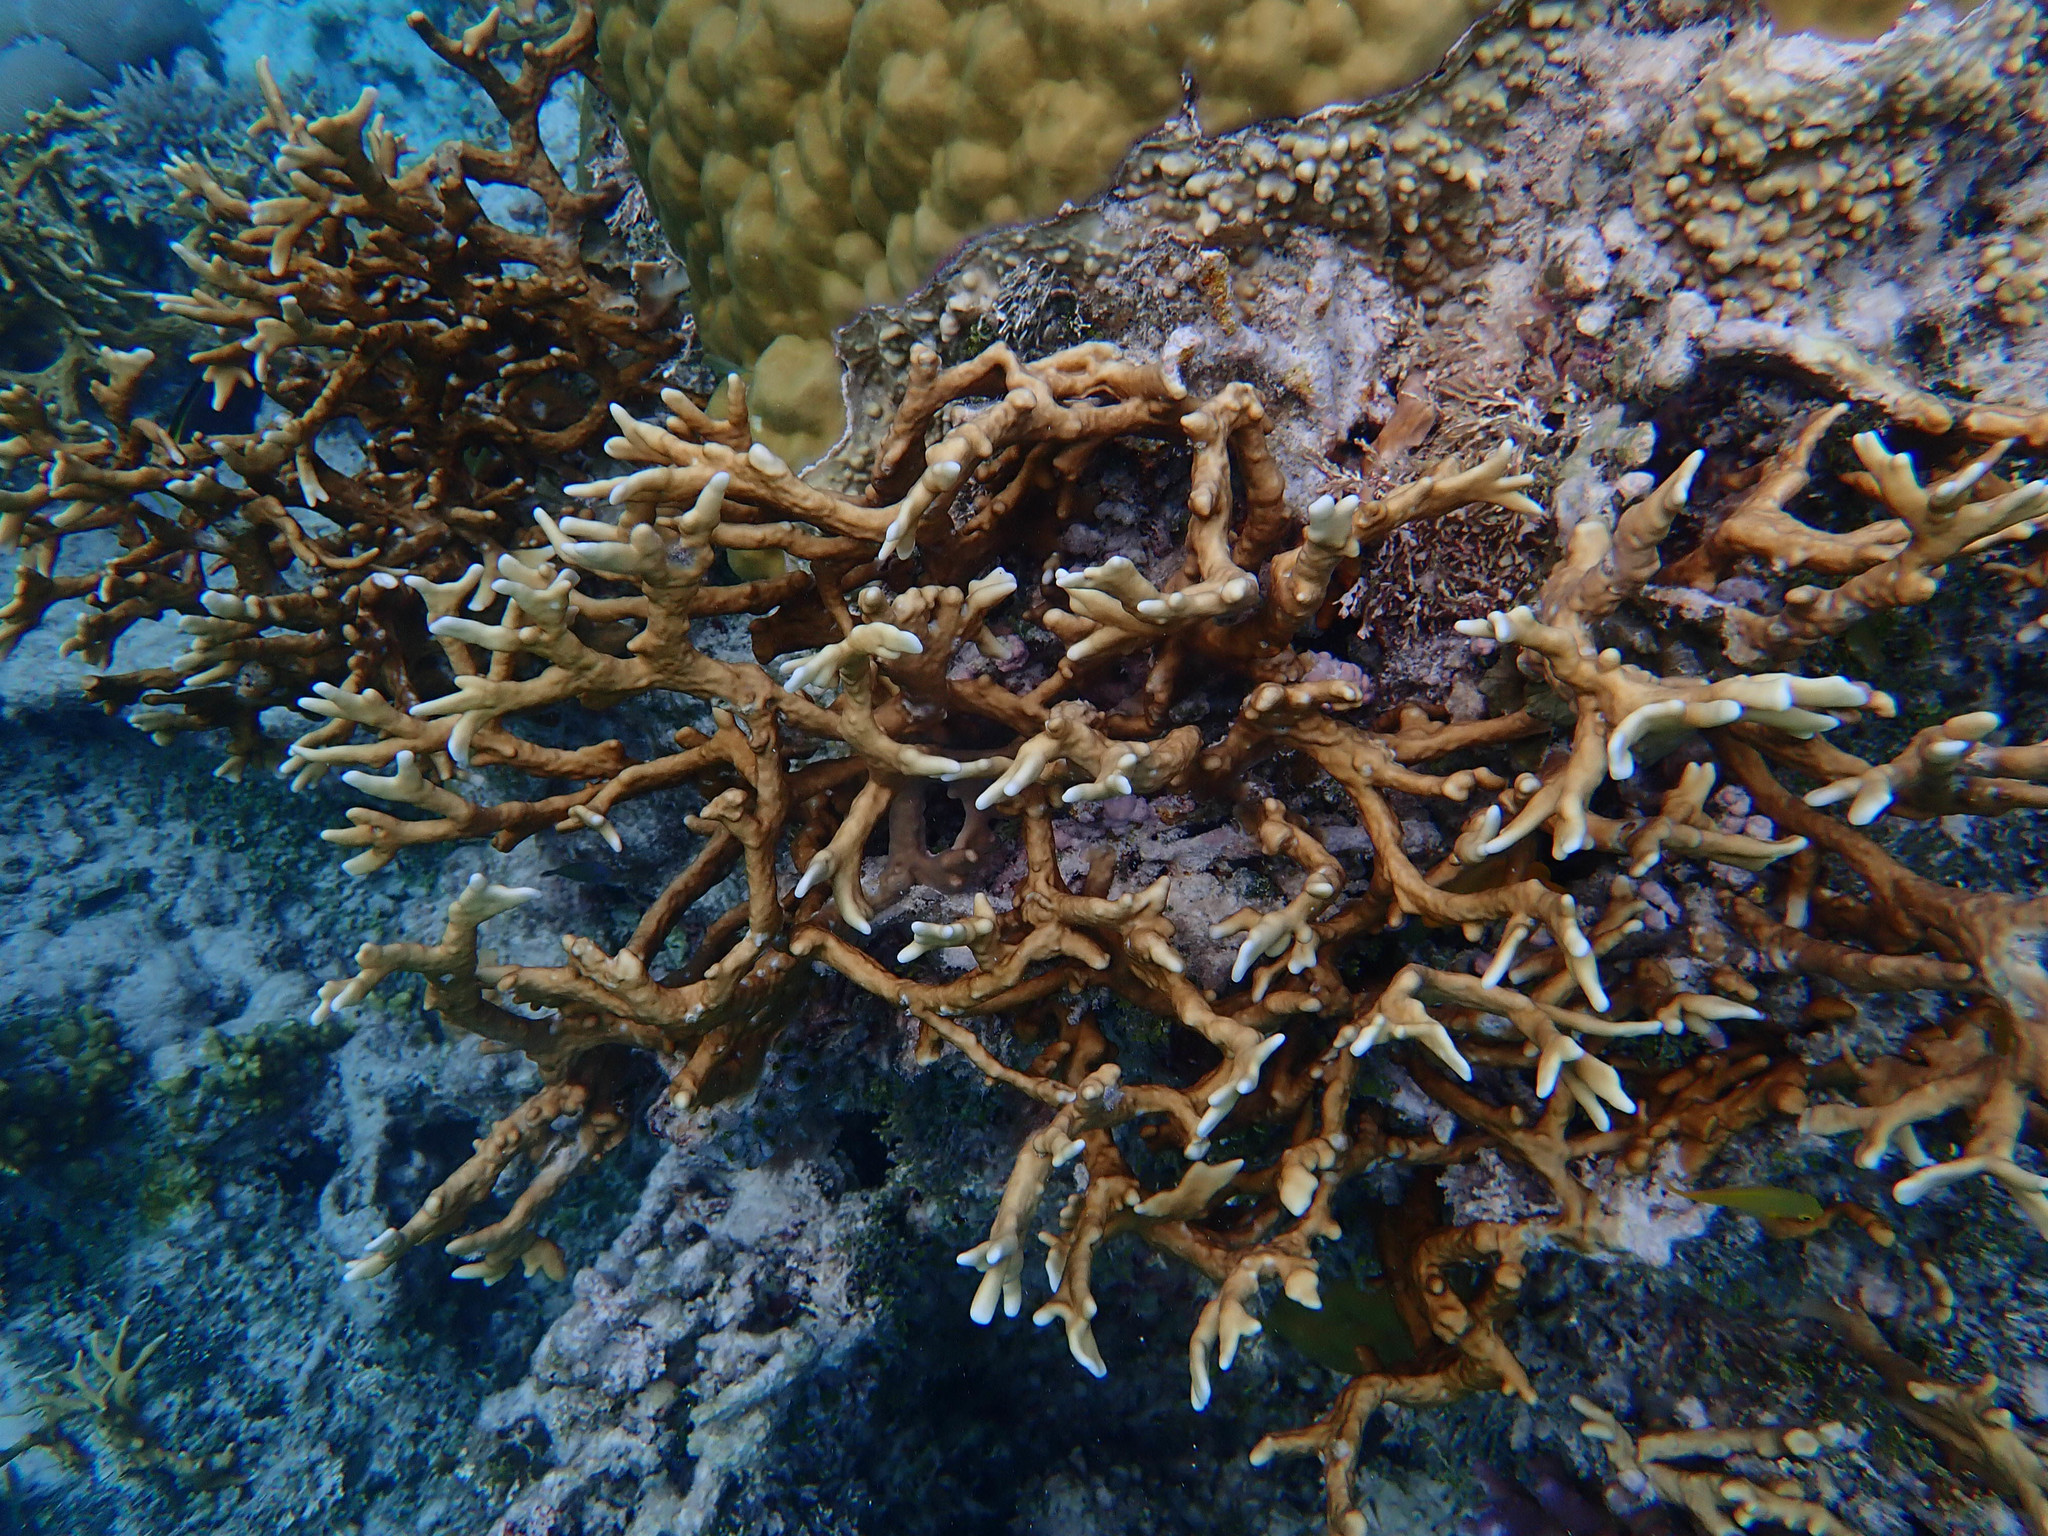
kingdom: Animalia
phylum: Chordata
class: Ascidiacea
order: Aplousobranchia
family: Didemnidae
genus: Didemnum
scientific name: Didemnum molle
